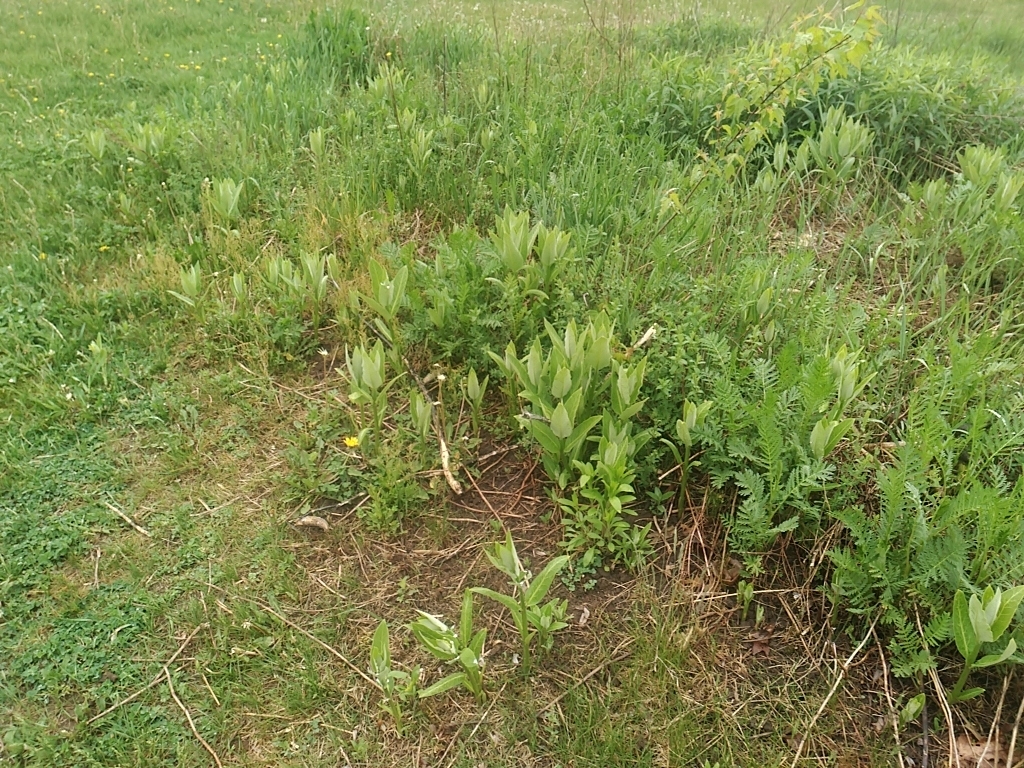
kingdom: Plantae
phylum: Tracheophyta
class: Magnoliopsida
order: Gentianales
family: Apocynaceae
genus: Asclepias
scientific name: Asclepias syriaca
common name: Common milkweed
